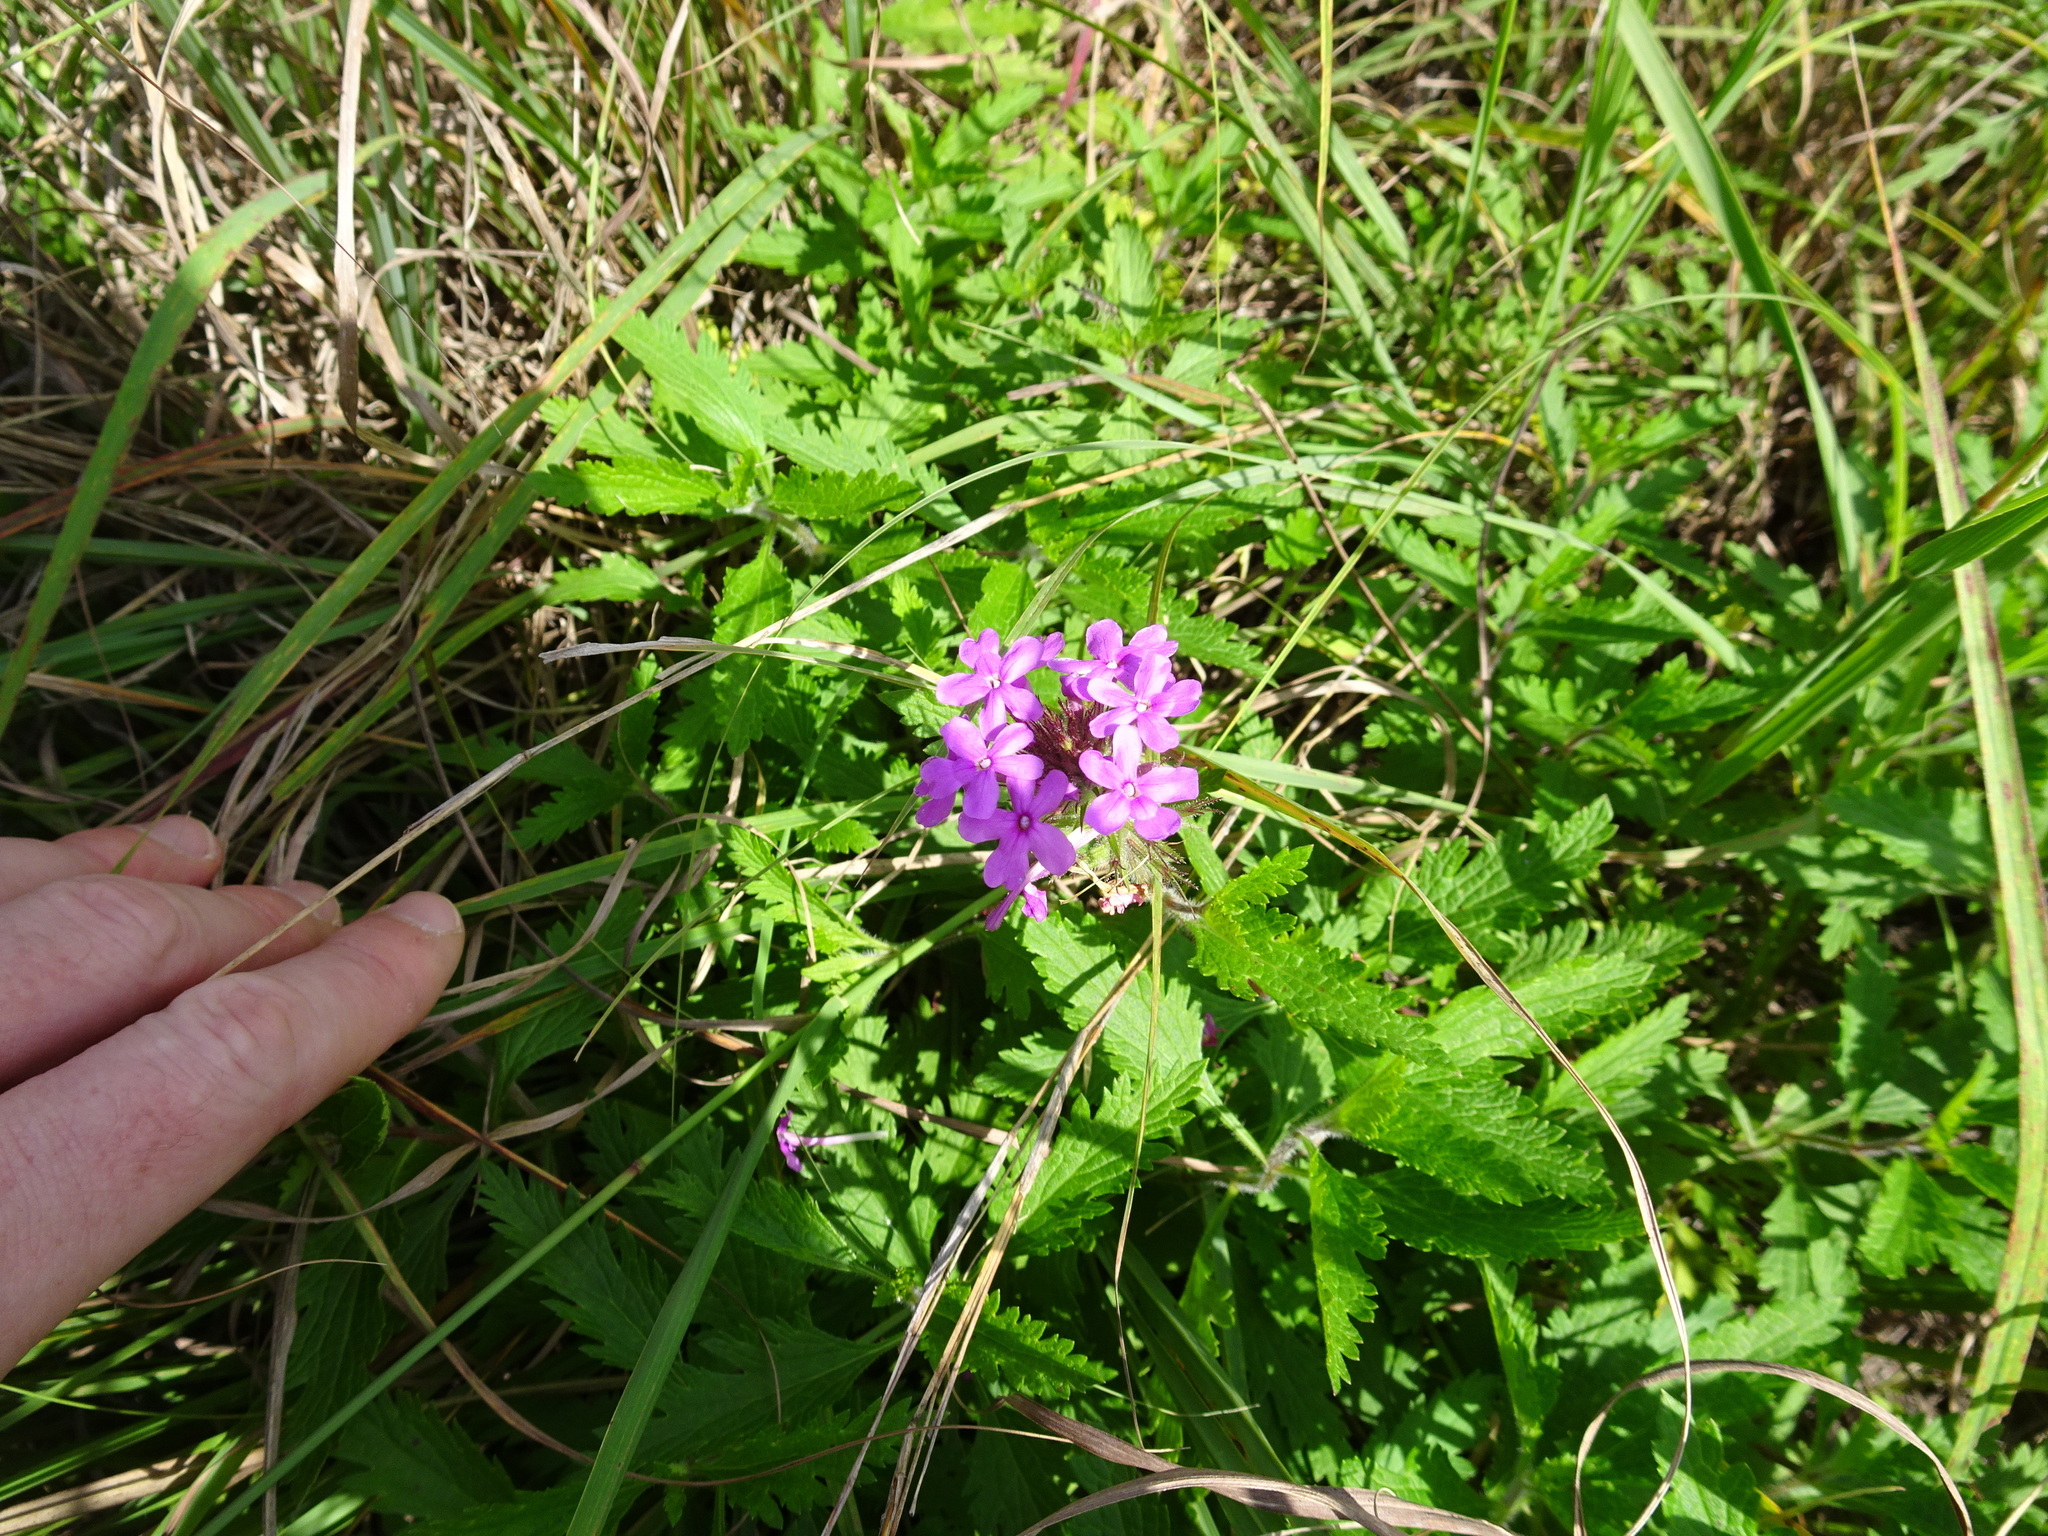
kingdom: Plantae
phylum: Tracheophyta
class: Magnoliopsida
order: Lamiales
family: Verbenaceae
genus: Verbena
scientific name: Verbena canadensis
